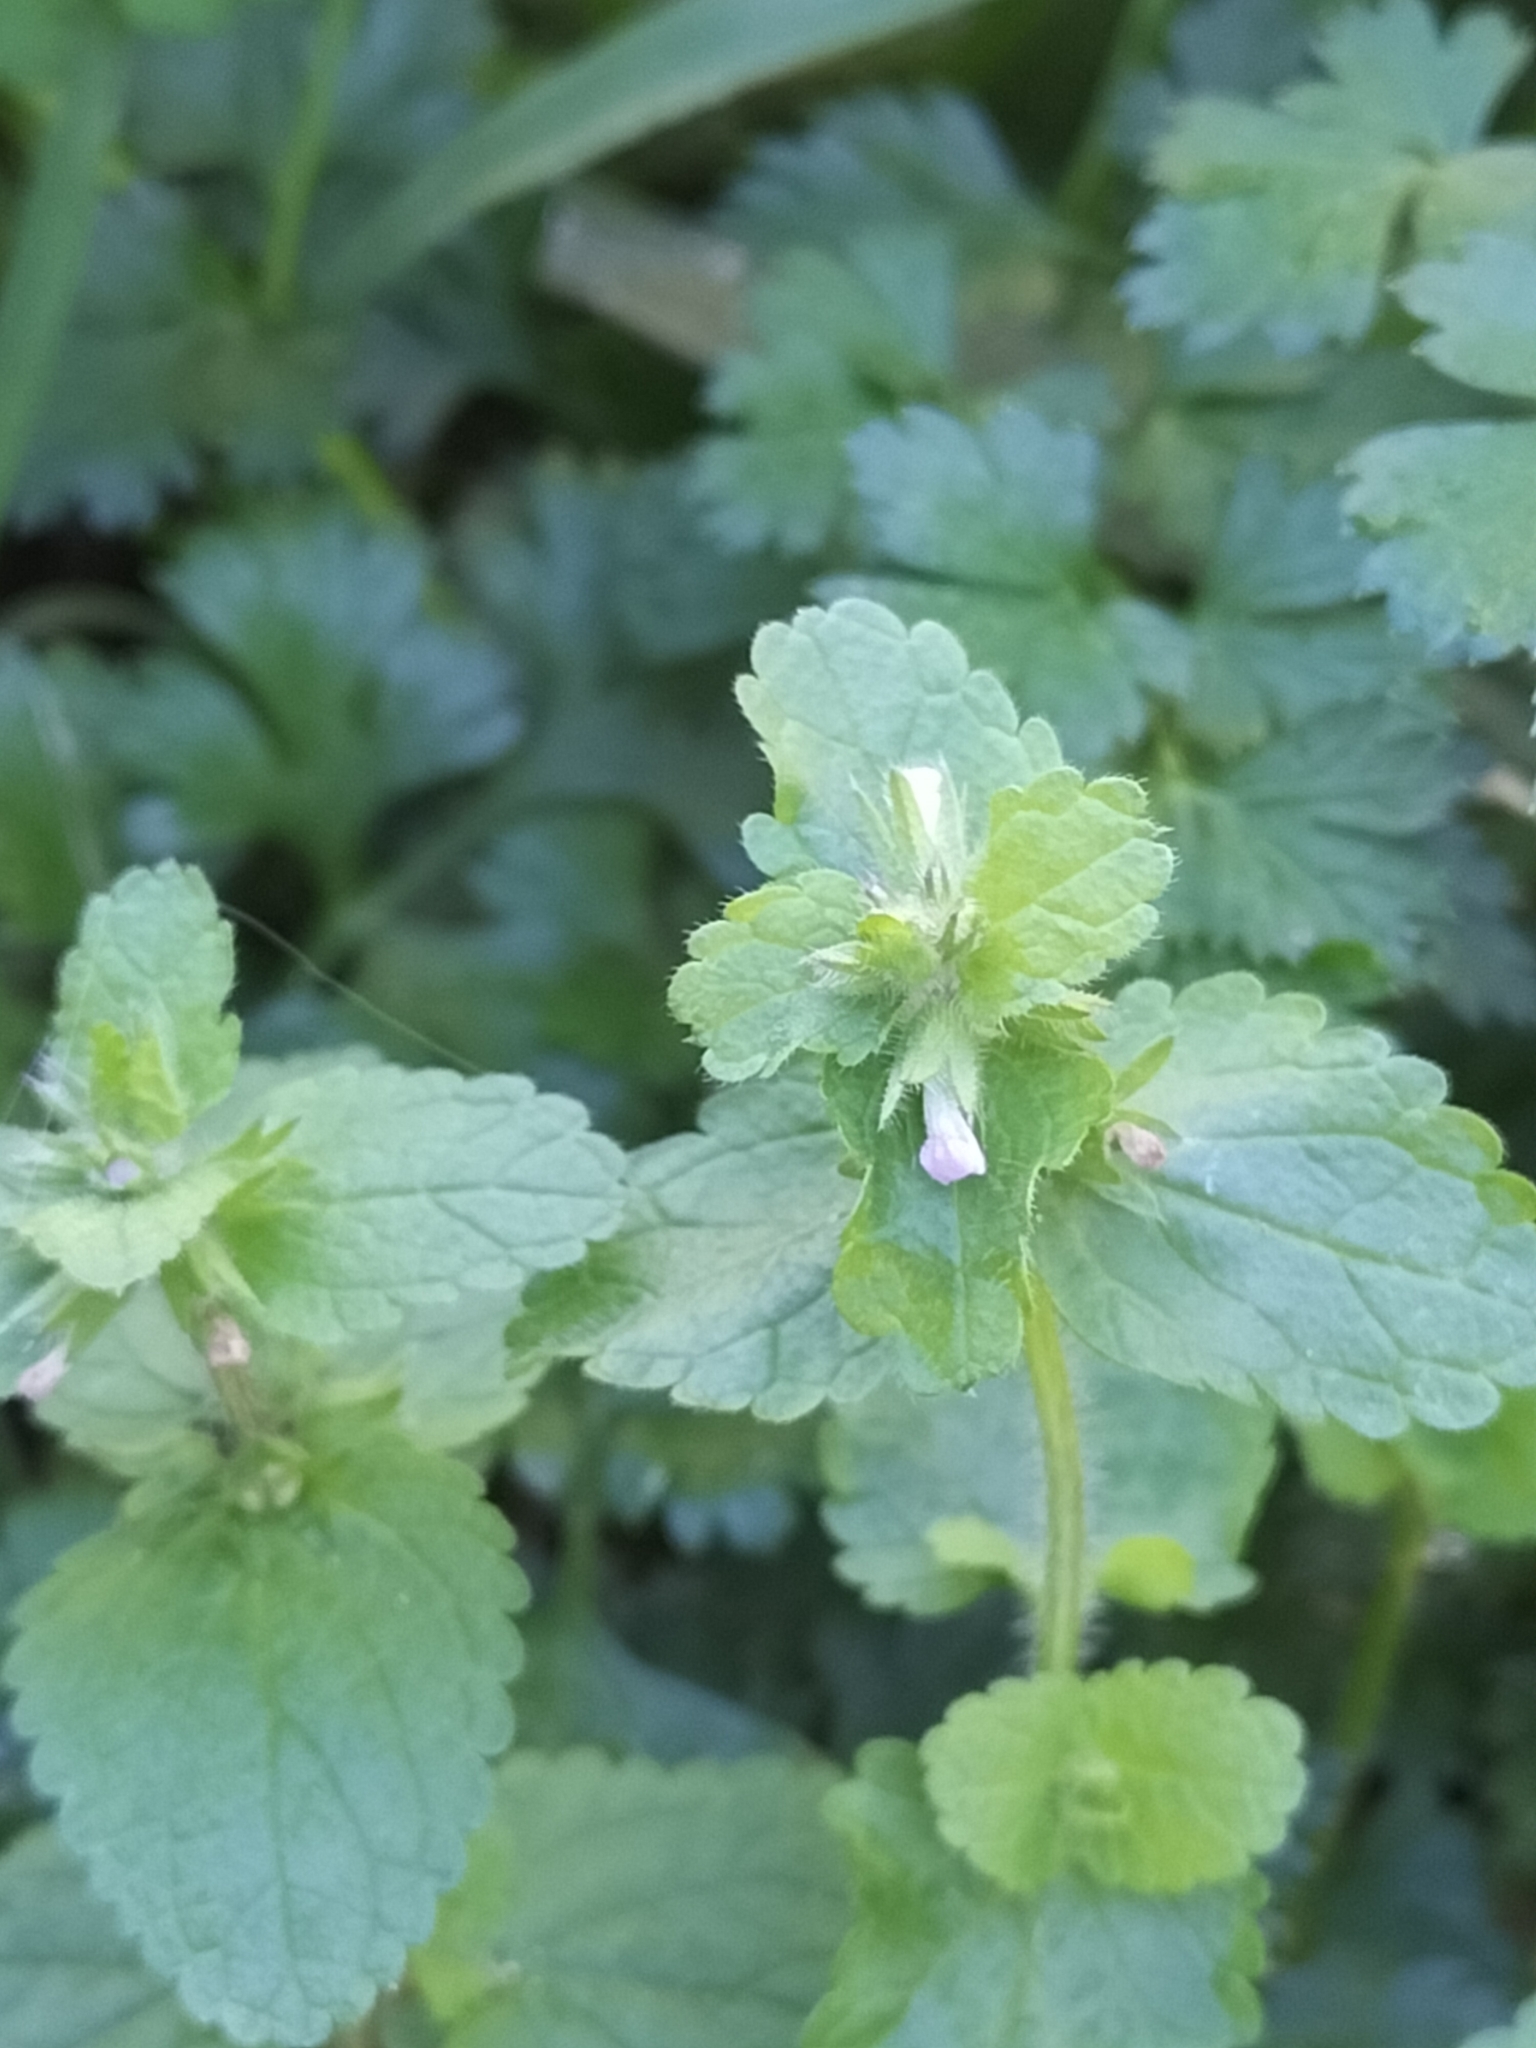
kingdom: Plantae
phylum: Tracheophyta
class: Magnoliopsida
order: Lamiales
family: Lamiaceae
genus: Stachys
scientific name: Stachys arvensis
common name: Field woundwort
